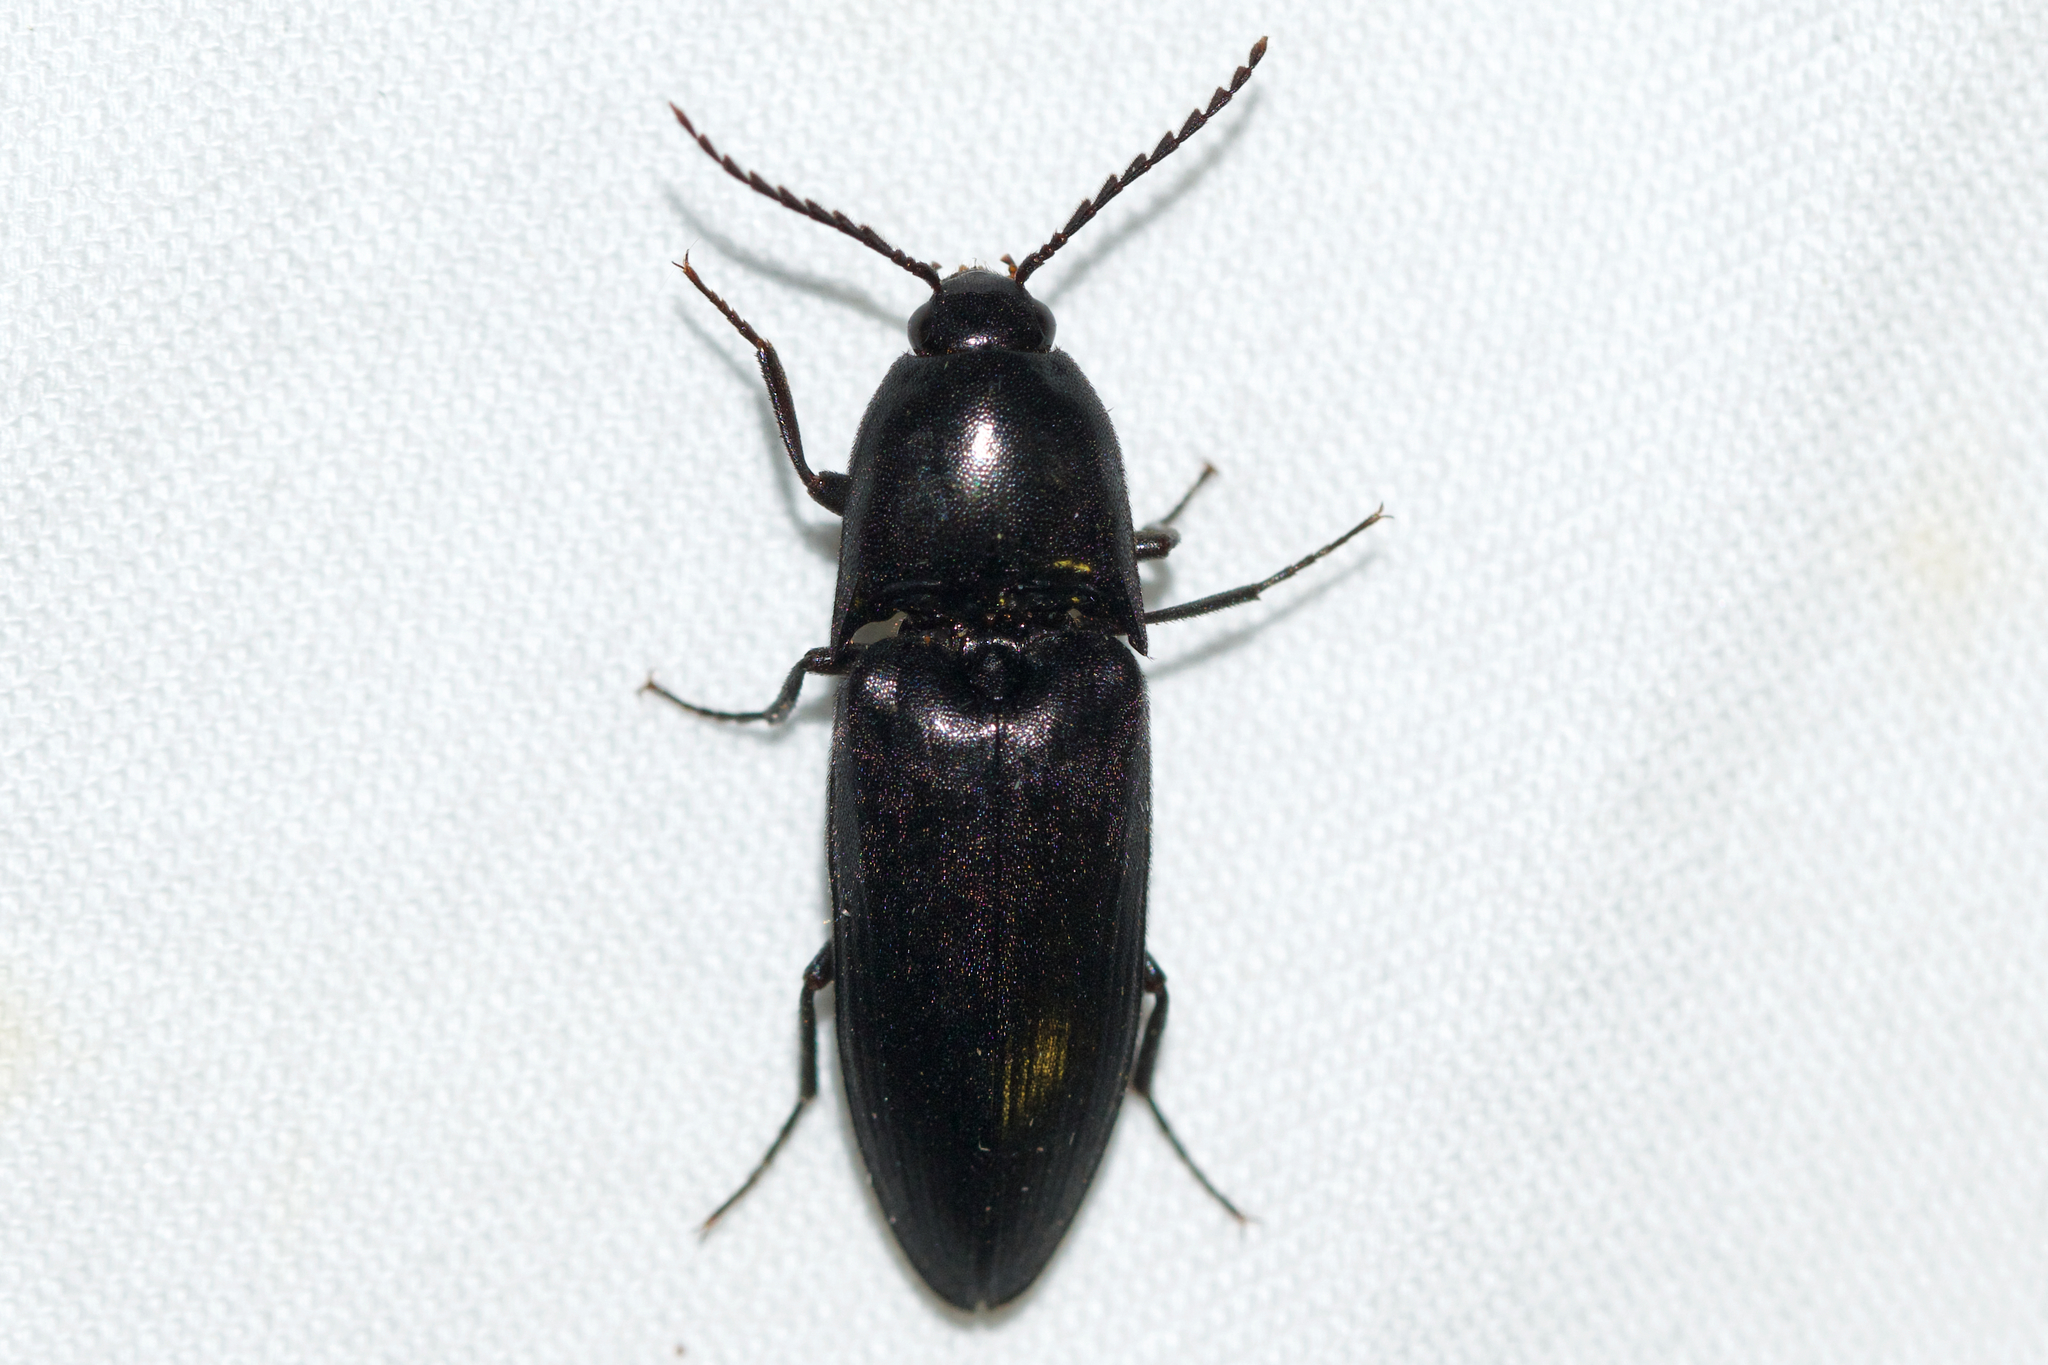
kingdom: Animalia
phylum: Arthropoda
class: Insecta
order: Coleoptera
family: Elateridae
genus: Elater
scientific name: Elater abruptus
